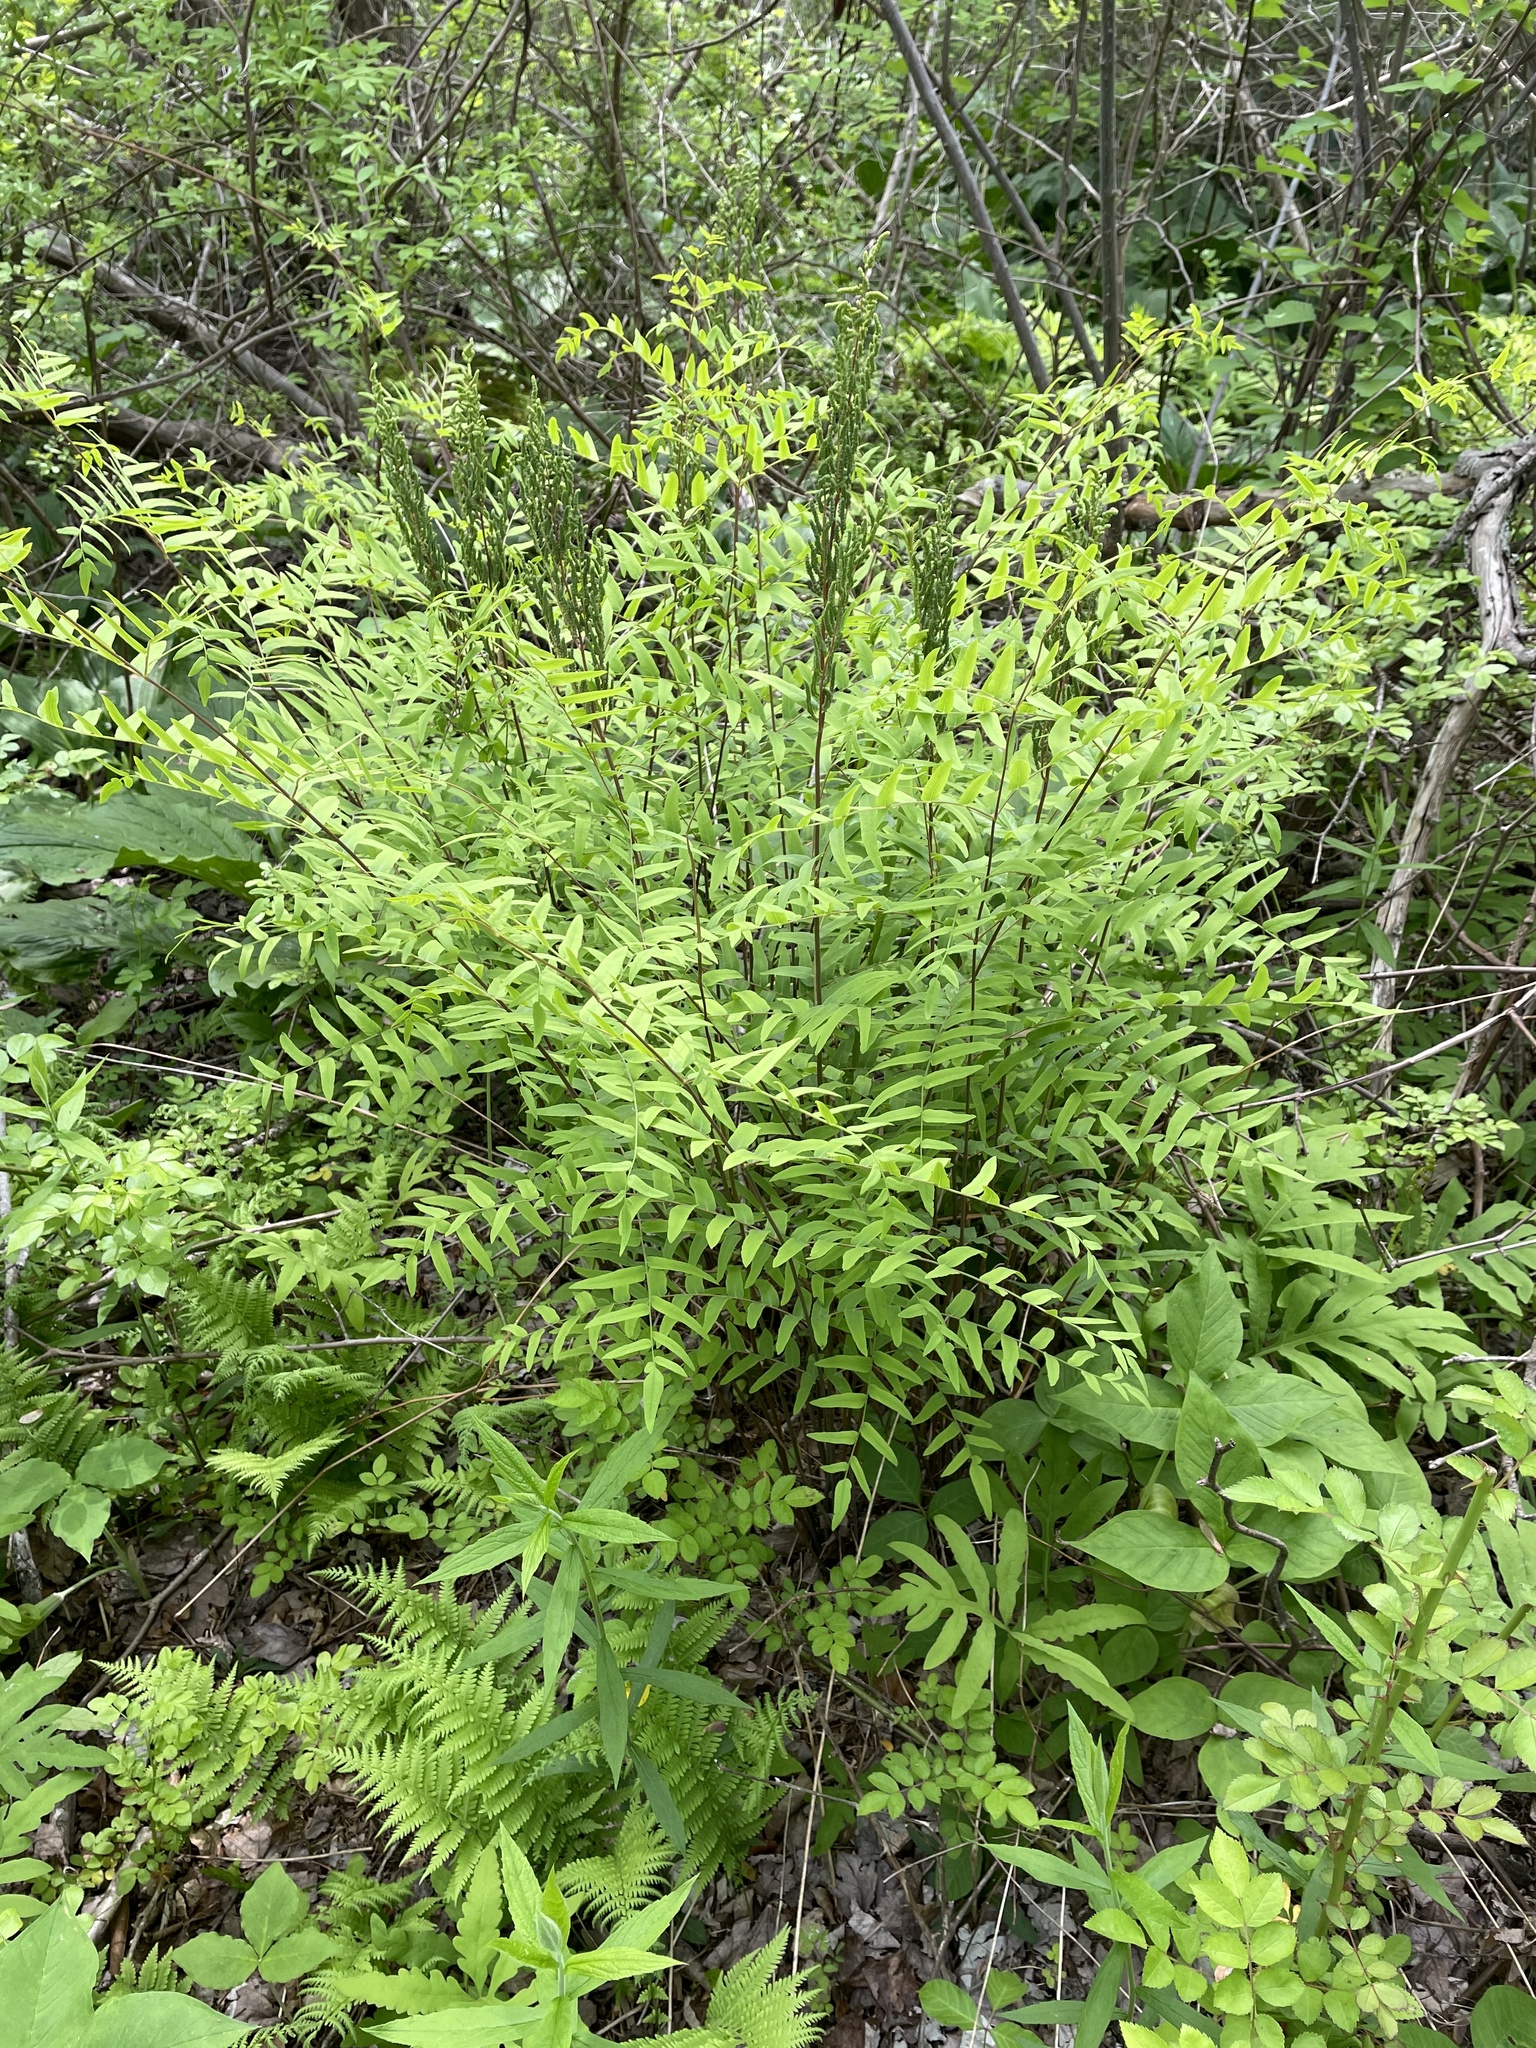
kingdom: Plantae
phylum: Tracheophyta
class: Polypodiopsida
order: Osmundales
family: Osmundaceae
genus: Osmunda
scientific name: Osmunda spectabilis
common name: American royal fern
